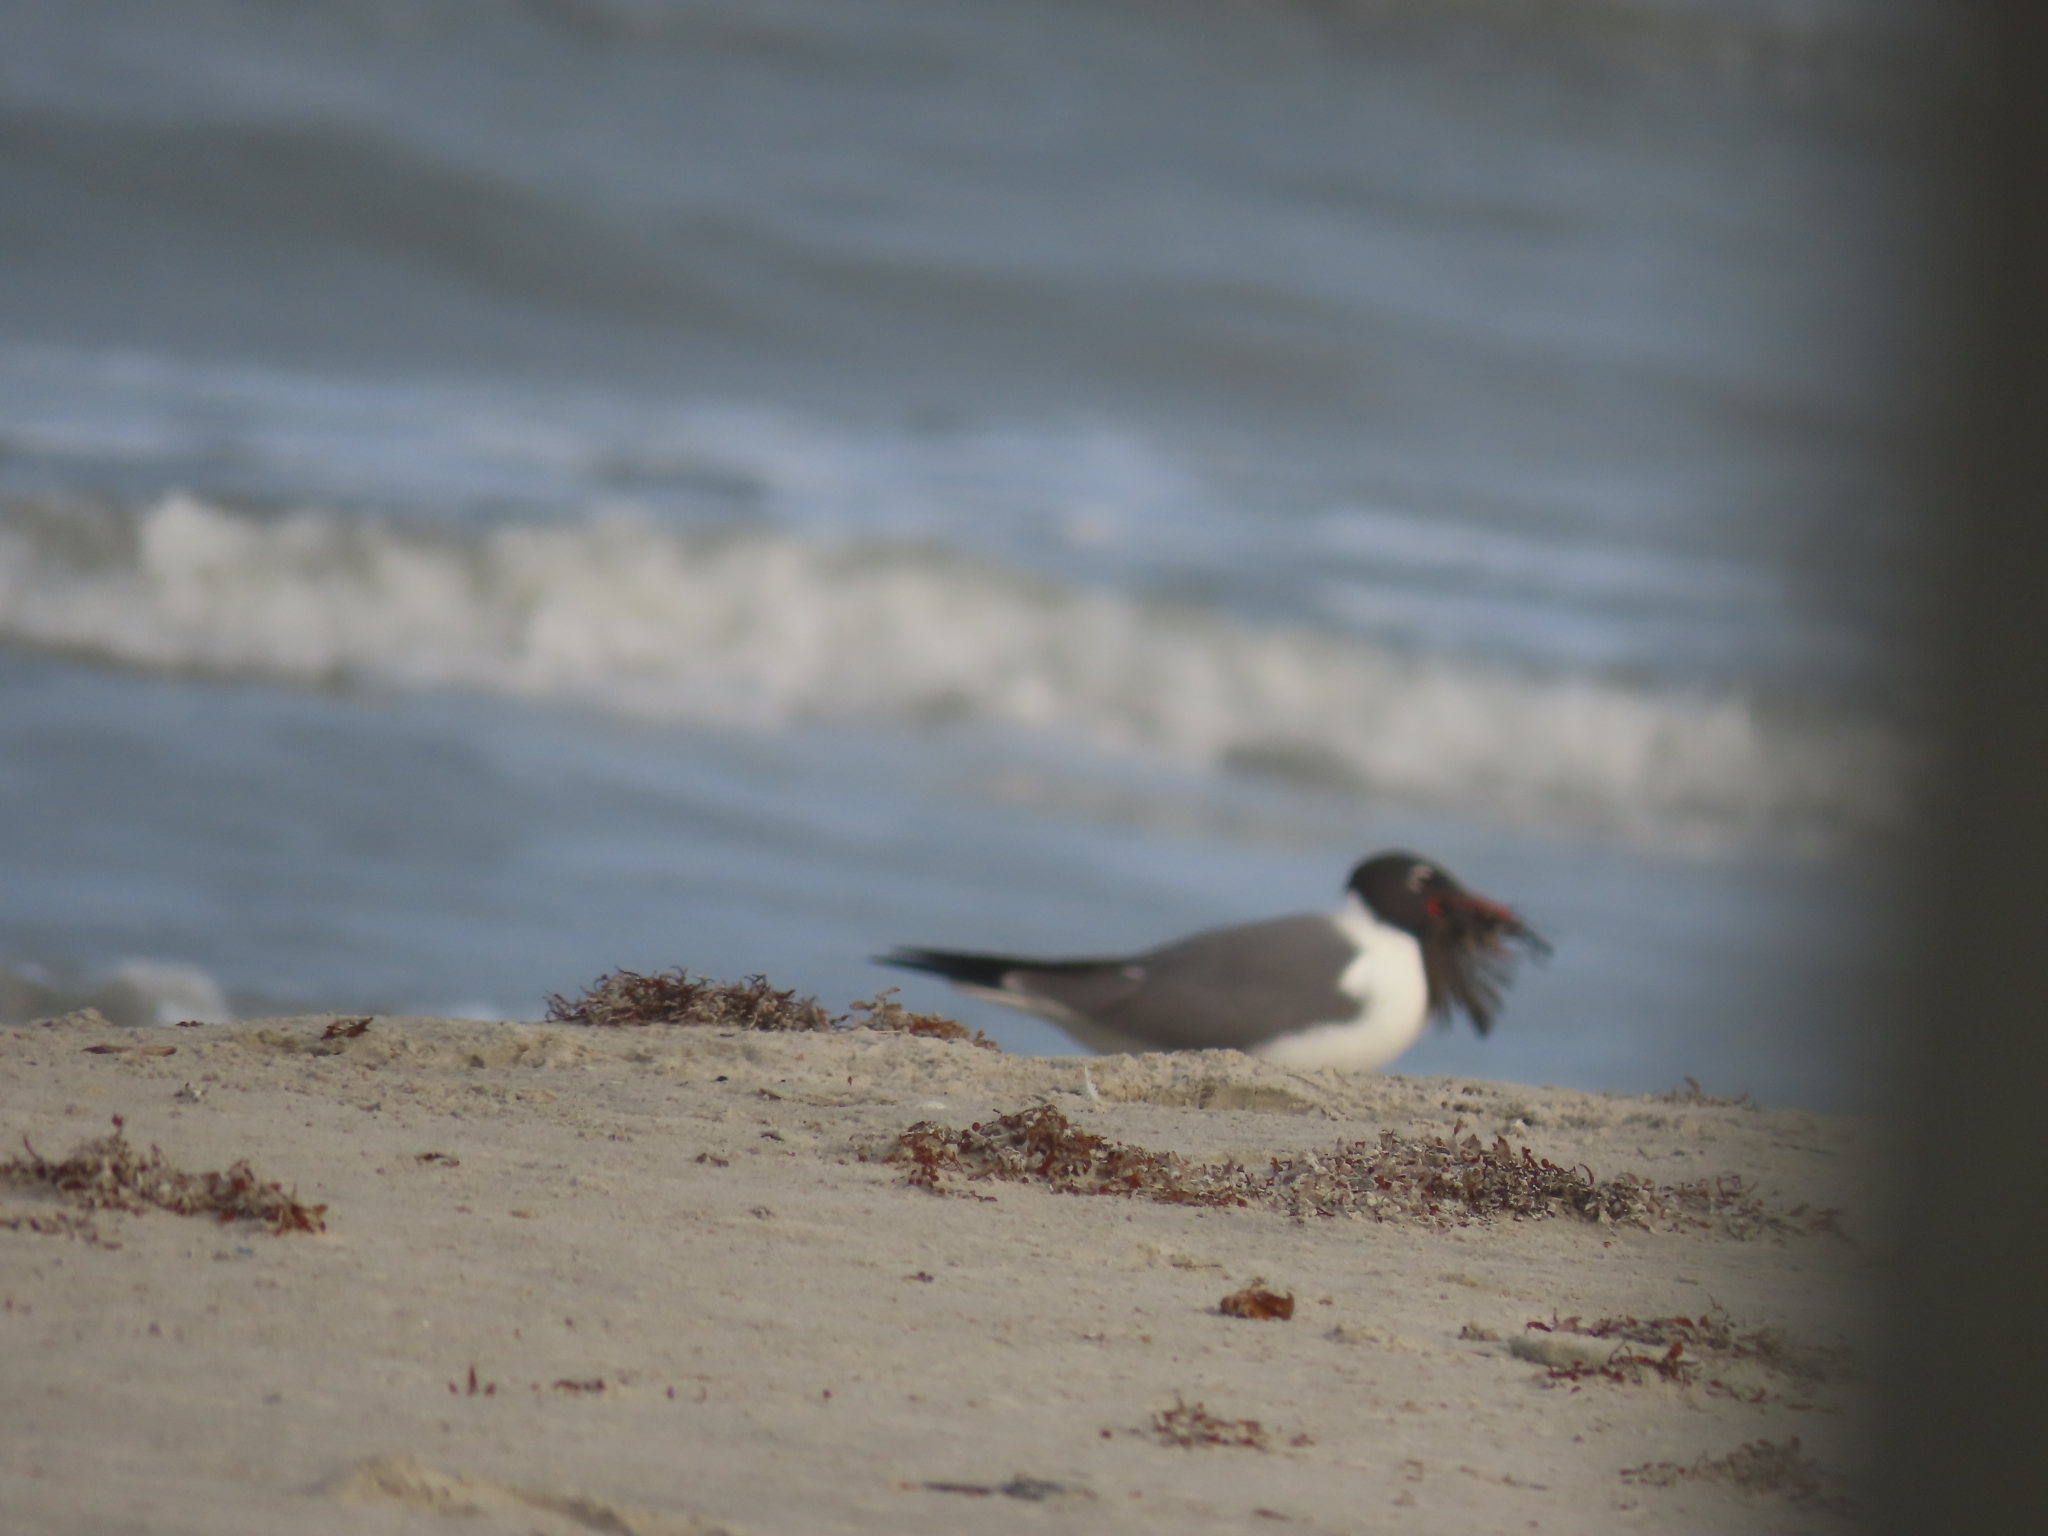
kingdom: Animalia
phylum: Chordata
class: Aves
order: Charadriiformes
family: Laridae
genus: Leucophaeus
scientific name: Leucophaeus atricilla
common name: Laughing gull
